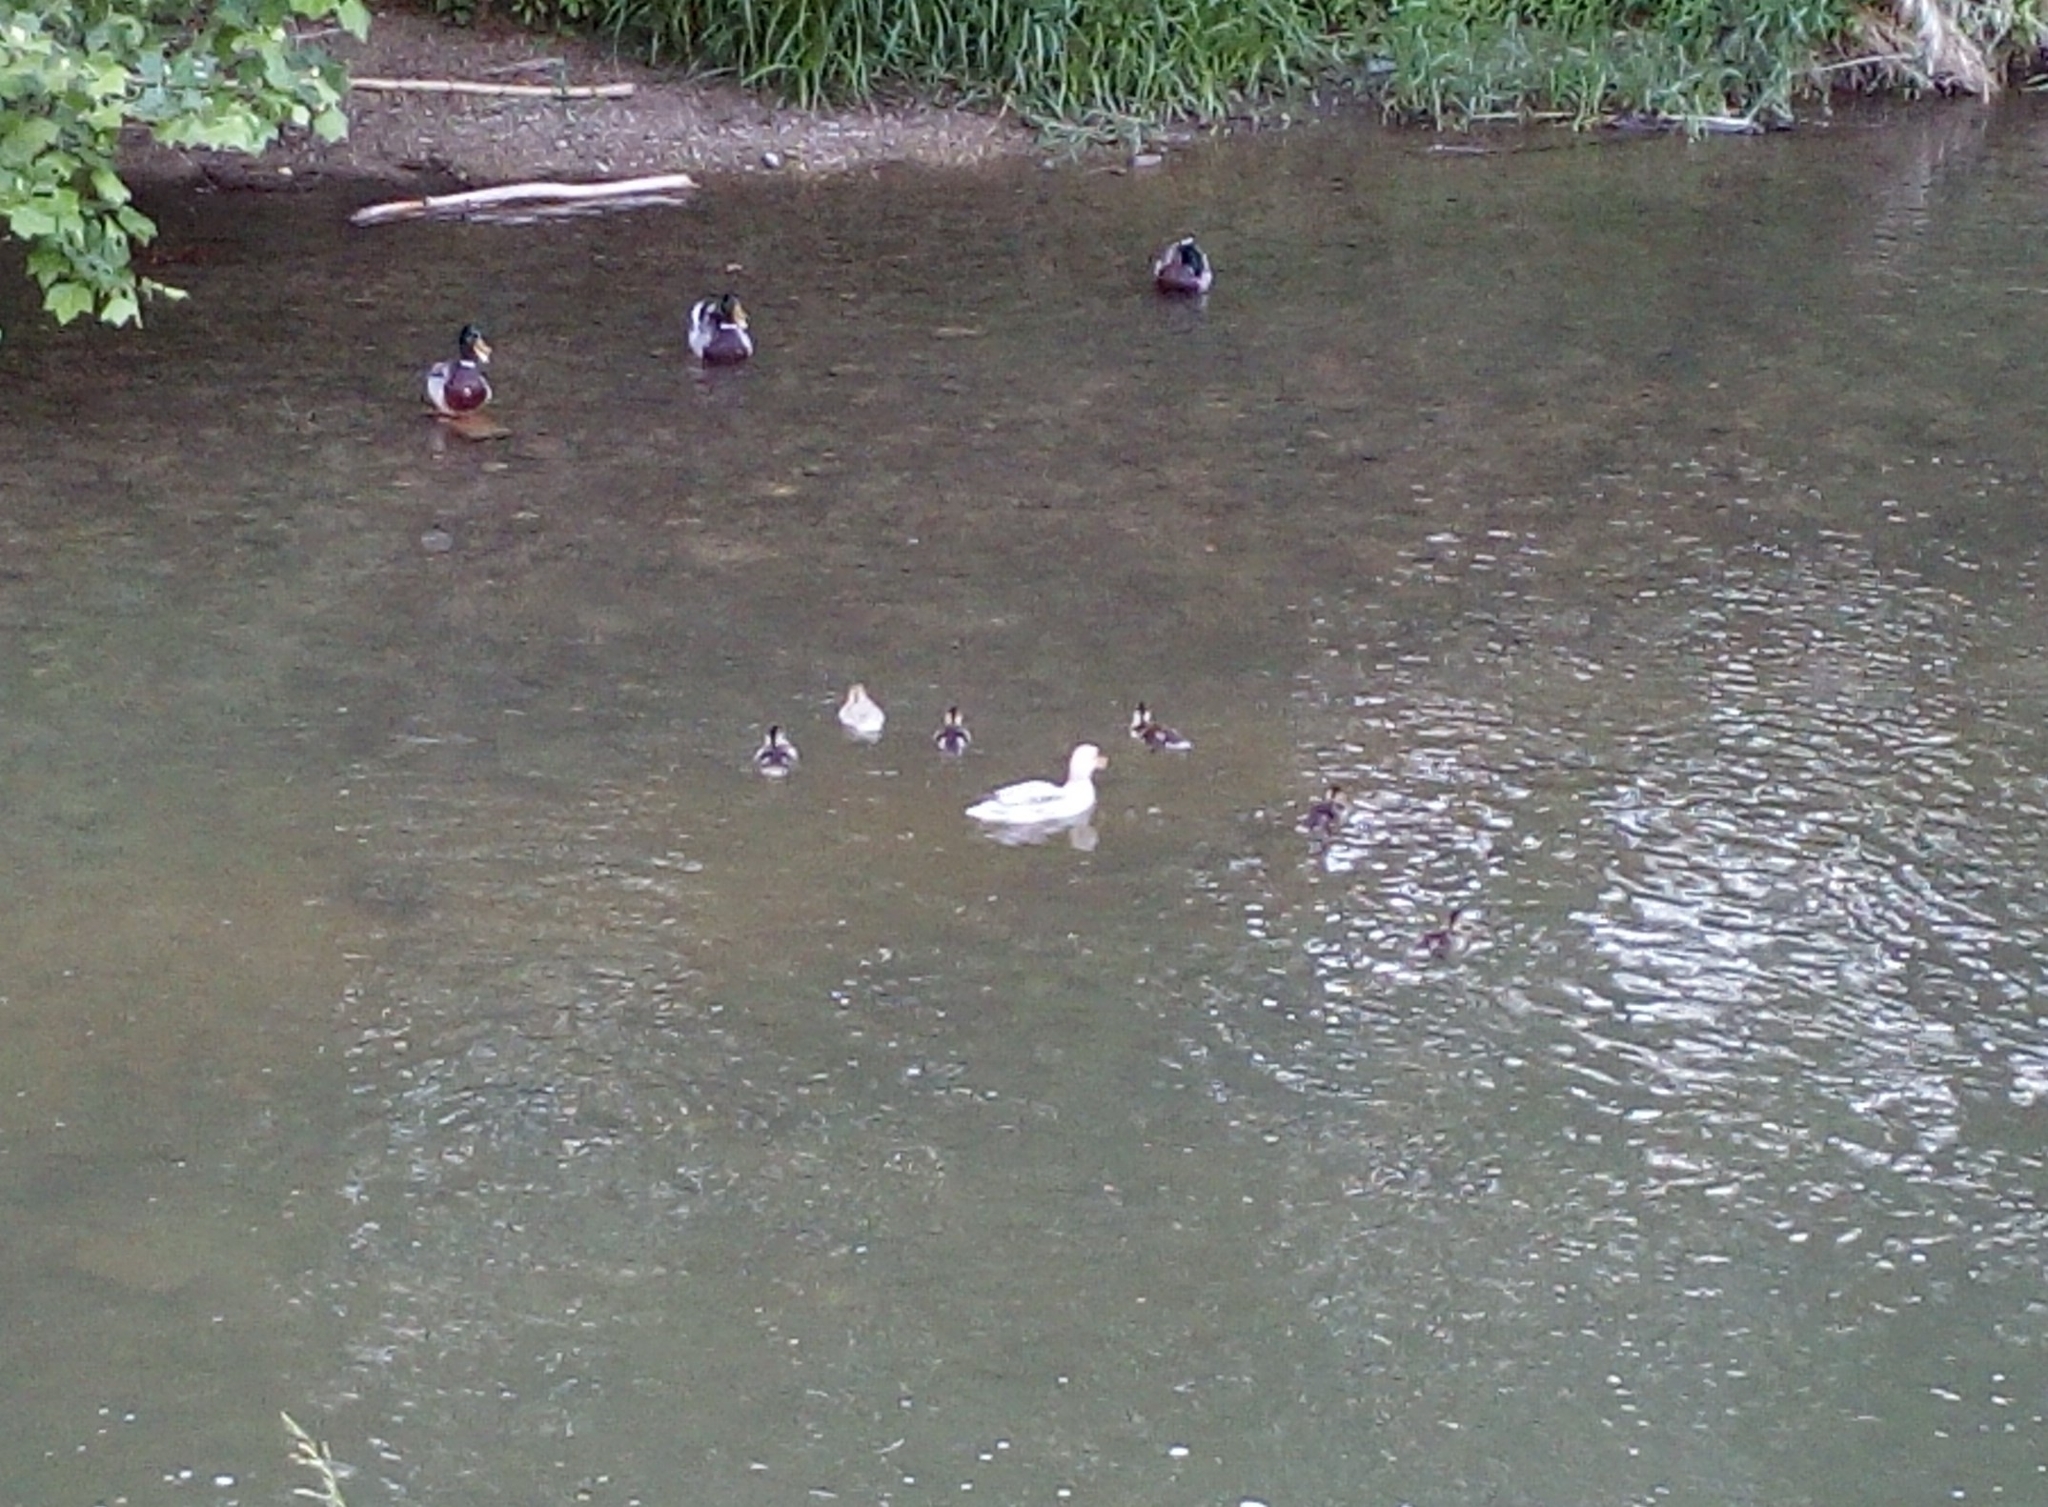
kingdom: Animalia
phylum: Chordata
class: Aves
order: Anseriformes
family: Anatidae
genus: Anas
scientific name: Anas platyrhynchos
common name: Mallard
